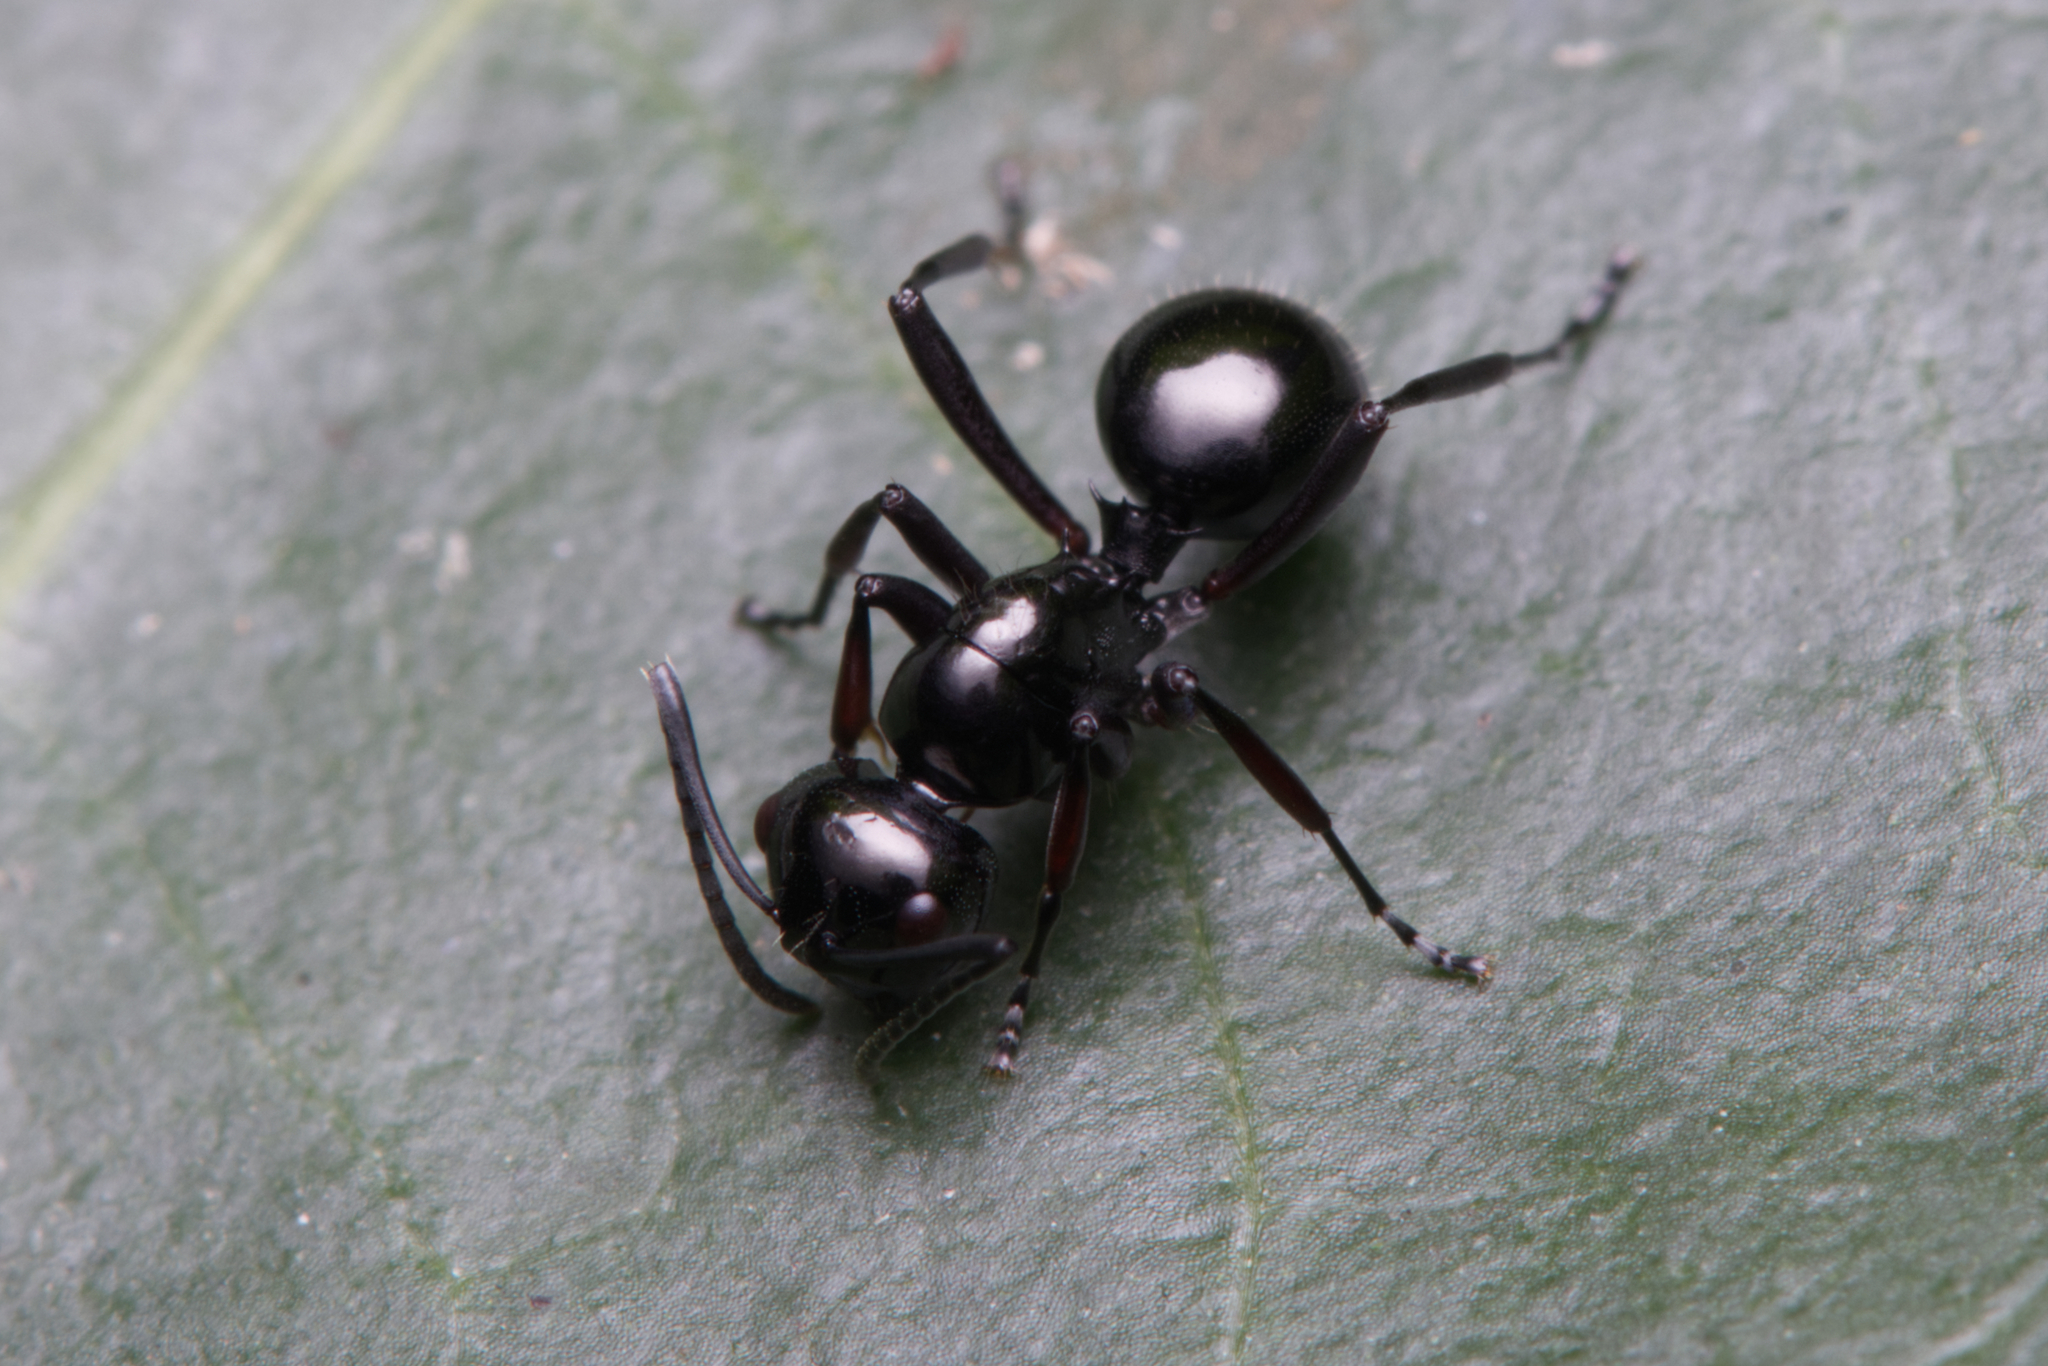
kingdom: Animalia
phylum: Arthropoda
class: Insecta
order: Hymenoptera
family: Formicidae
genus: Polyrhachis
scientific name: Polyrhachis australis
